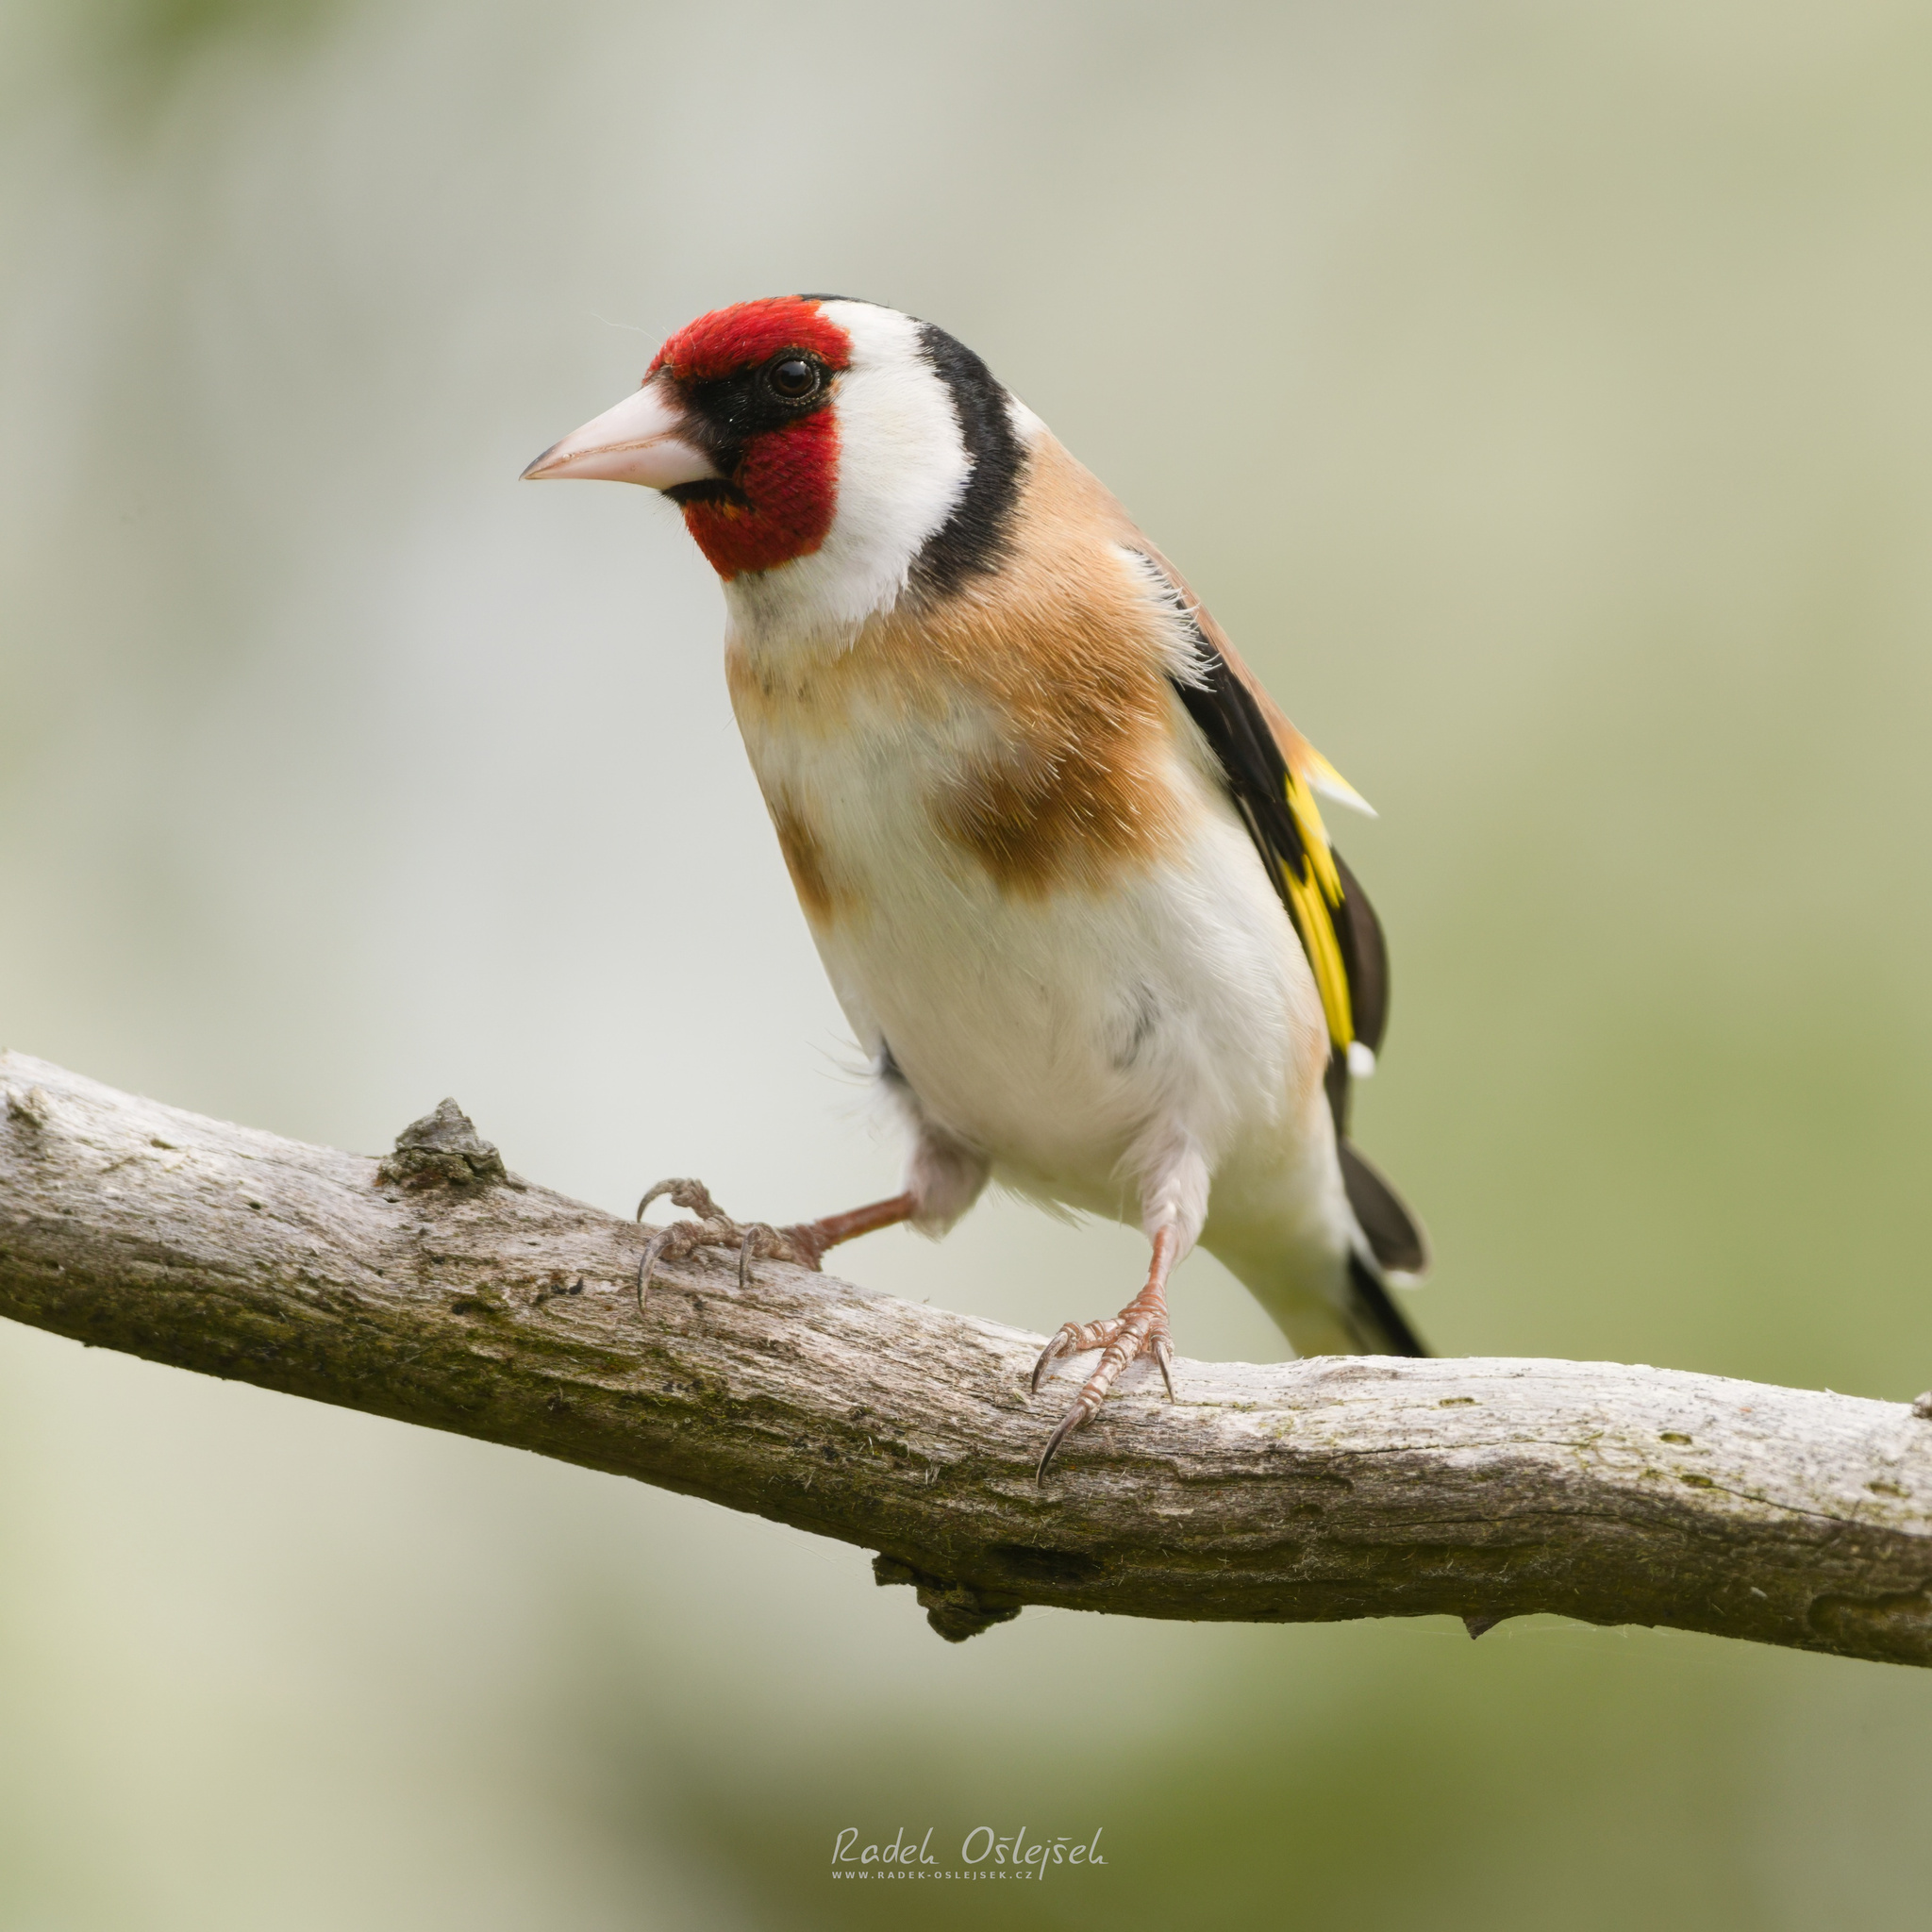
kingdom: Animalia
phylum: Chordata
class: Aves
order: Passeriformes
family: Fringillidae
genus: Carduelis
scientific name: Carduelis carduelis
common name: European goldfinch
